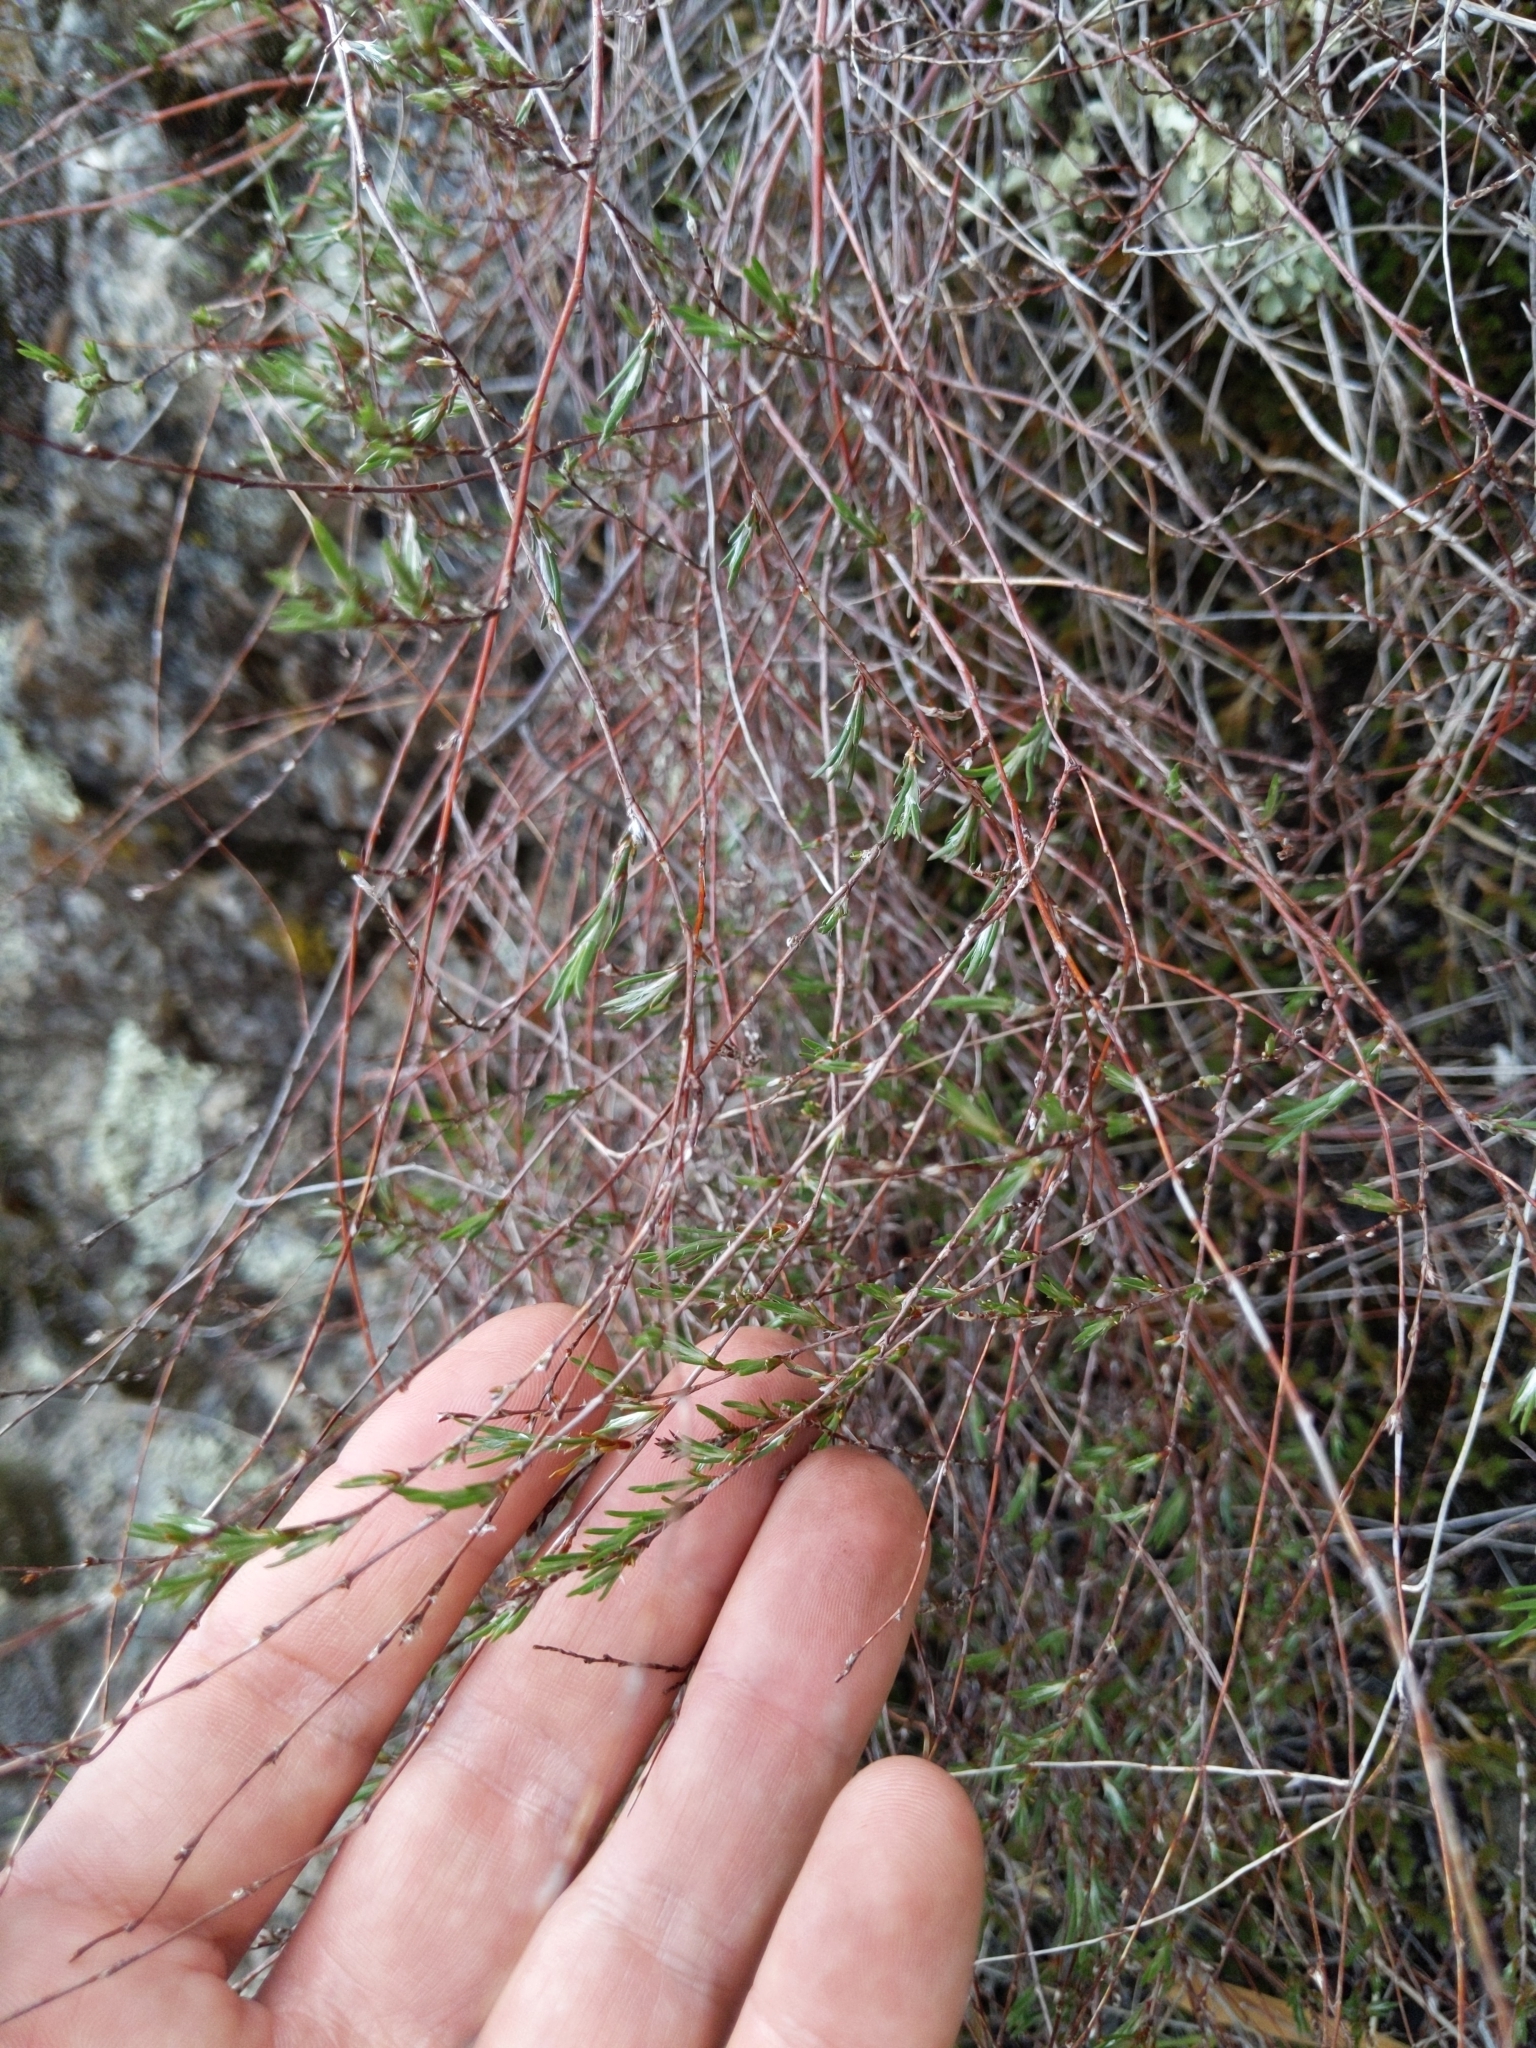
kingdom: Plantae
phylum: Tracheophyta
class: Magnoliopsida
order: Caryophyllales
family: Polygonaceae
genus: Polygonum
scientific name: Polygonum bolanderi
